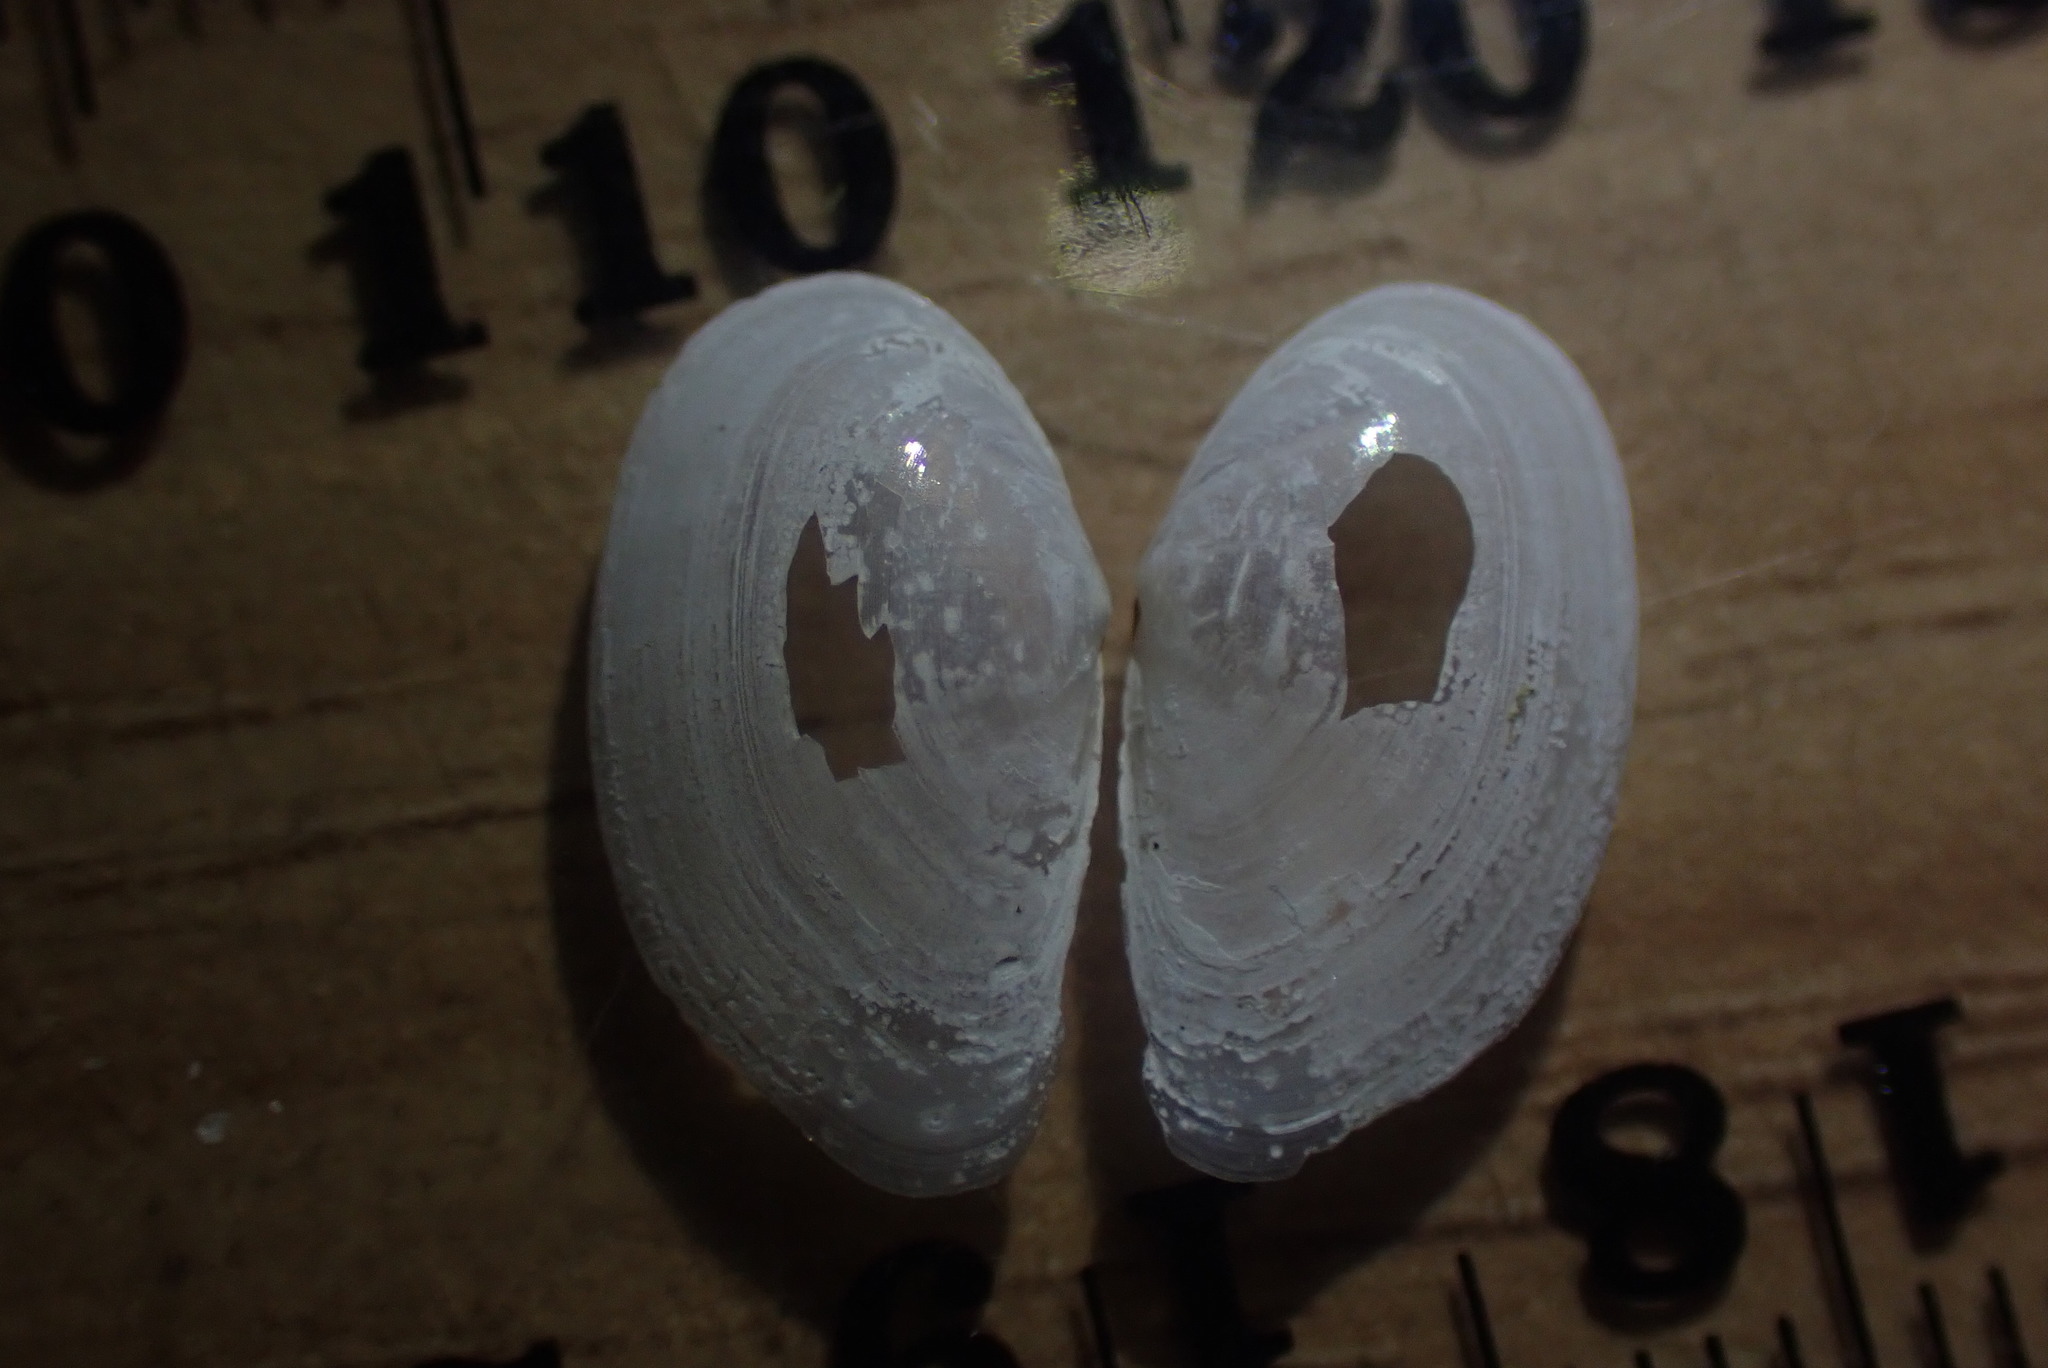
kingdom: Animalia
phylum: Mollusca
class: Bivalvia
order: Cardiida
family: Semelidae
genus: Theora
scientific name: Theora lubrica
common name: Asian semele
